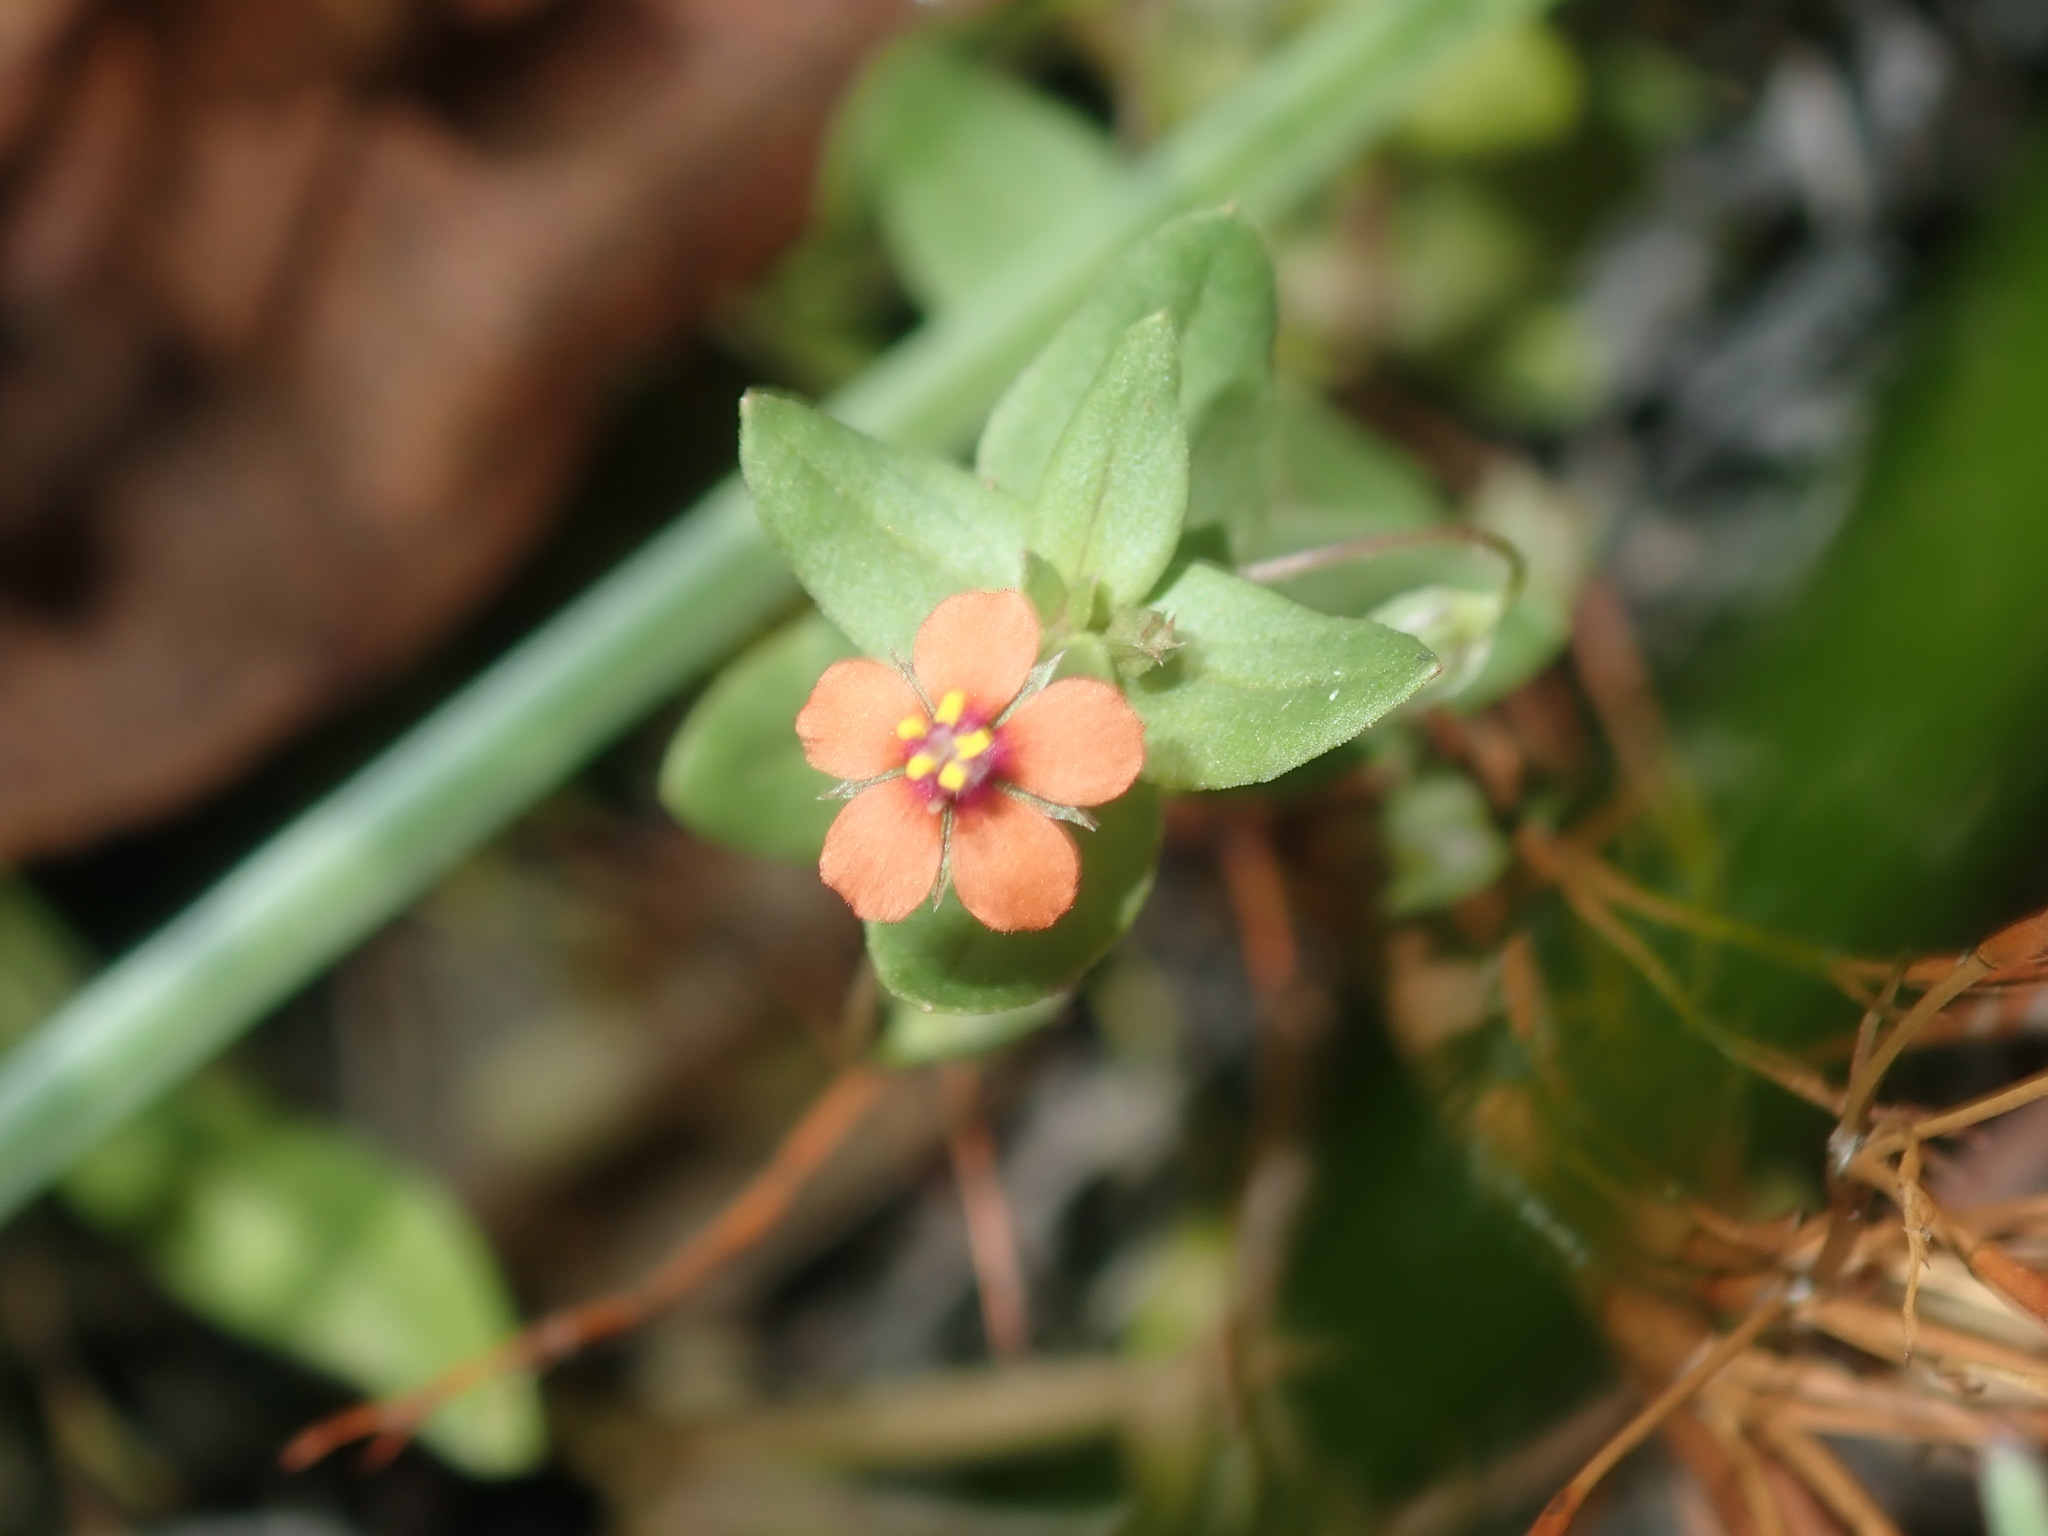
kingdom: Plantae
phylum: Tracheophyta
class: Magnoliopsida
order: Ericales
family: Primulaceae
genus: Lysimachia
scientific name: Lysimachia arvensis
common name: Scarlet pimpernel
